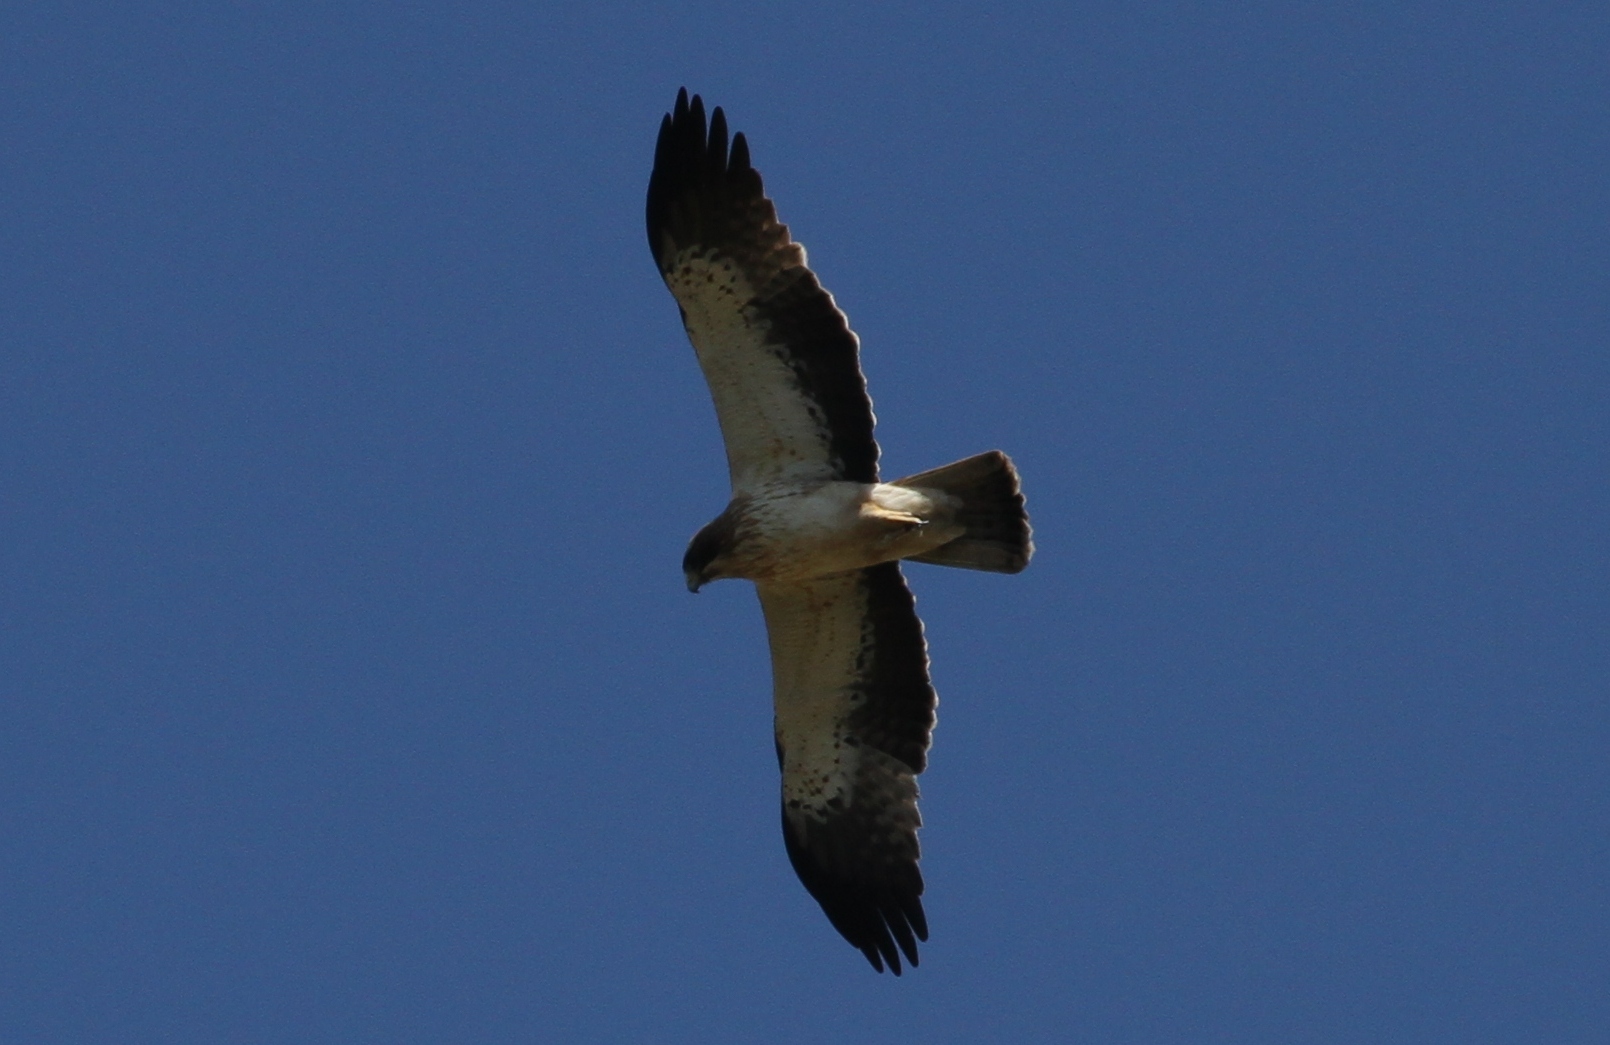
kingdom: Animalia
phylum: Chordata
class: Aves
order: Accipitriformes
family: Accipitridae
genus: Hieraaetus
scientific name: Hieraaetus pennatus
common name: Booted eagle
